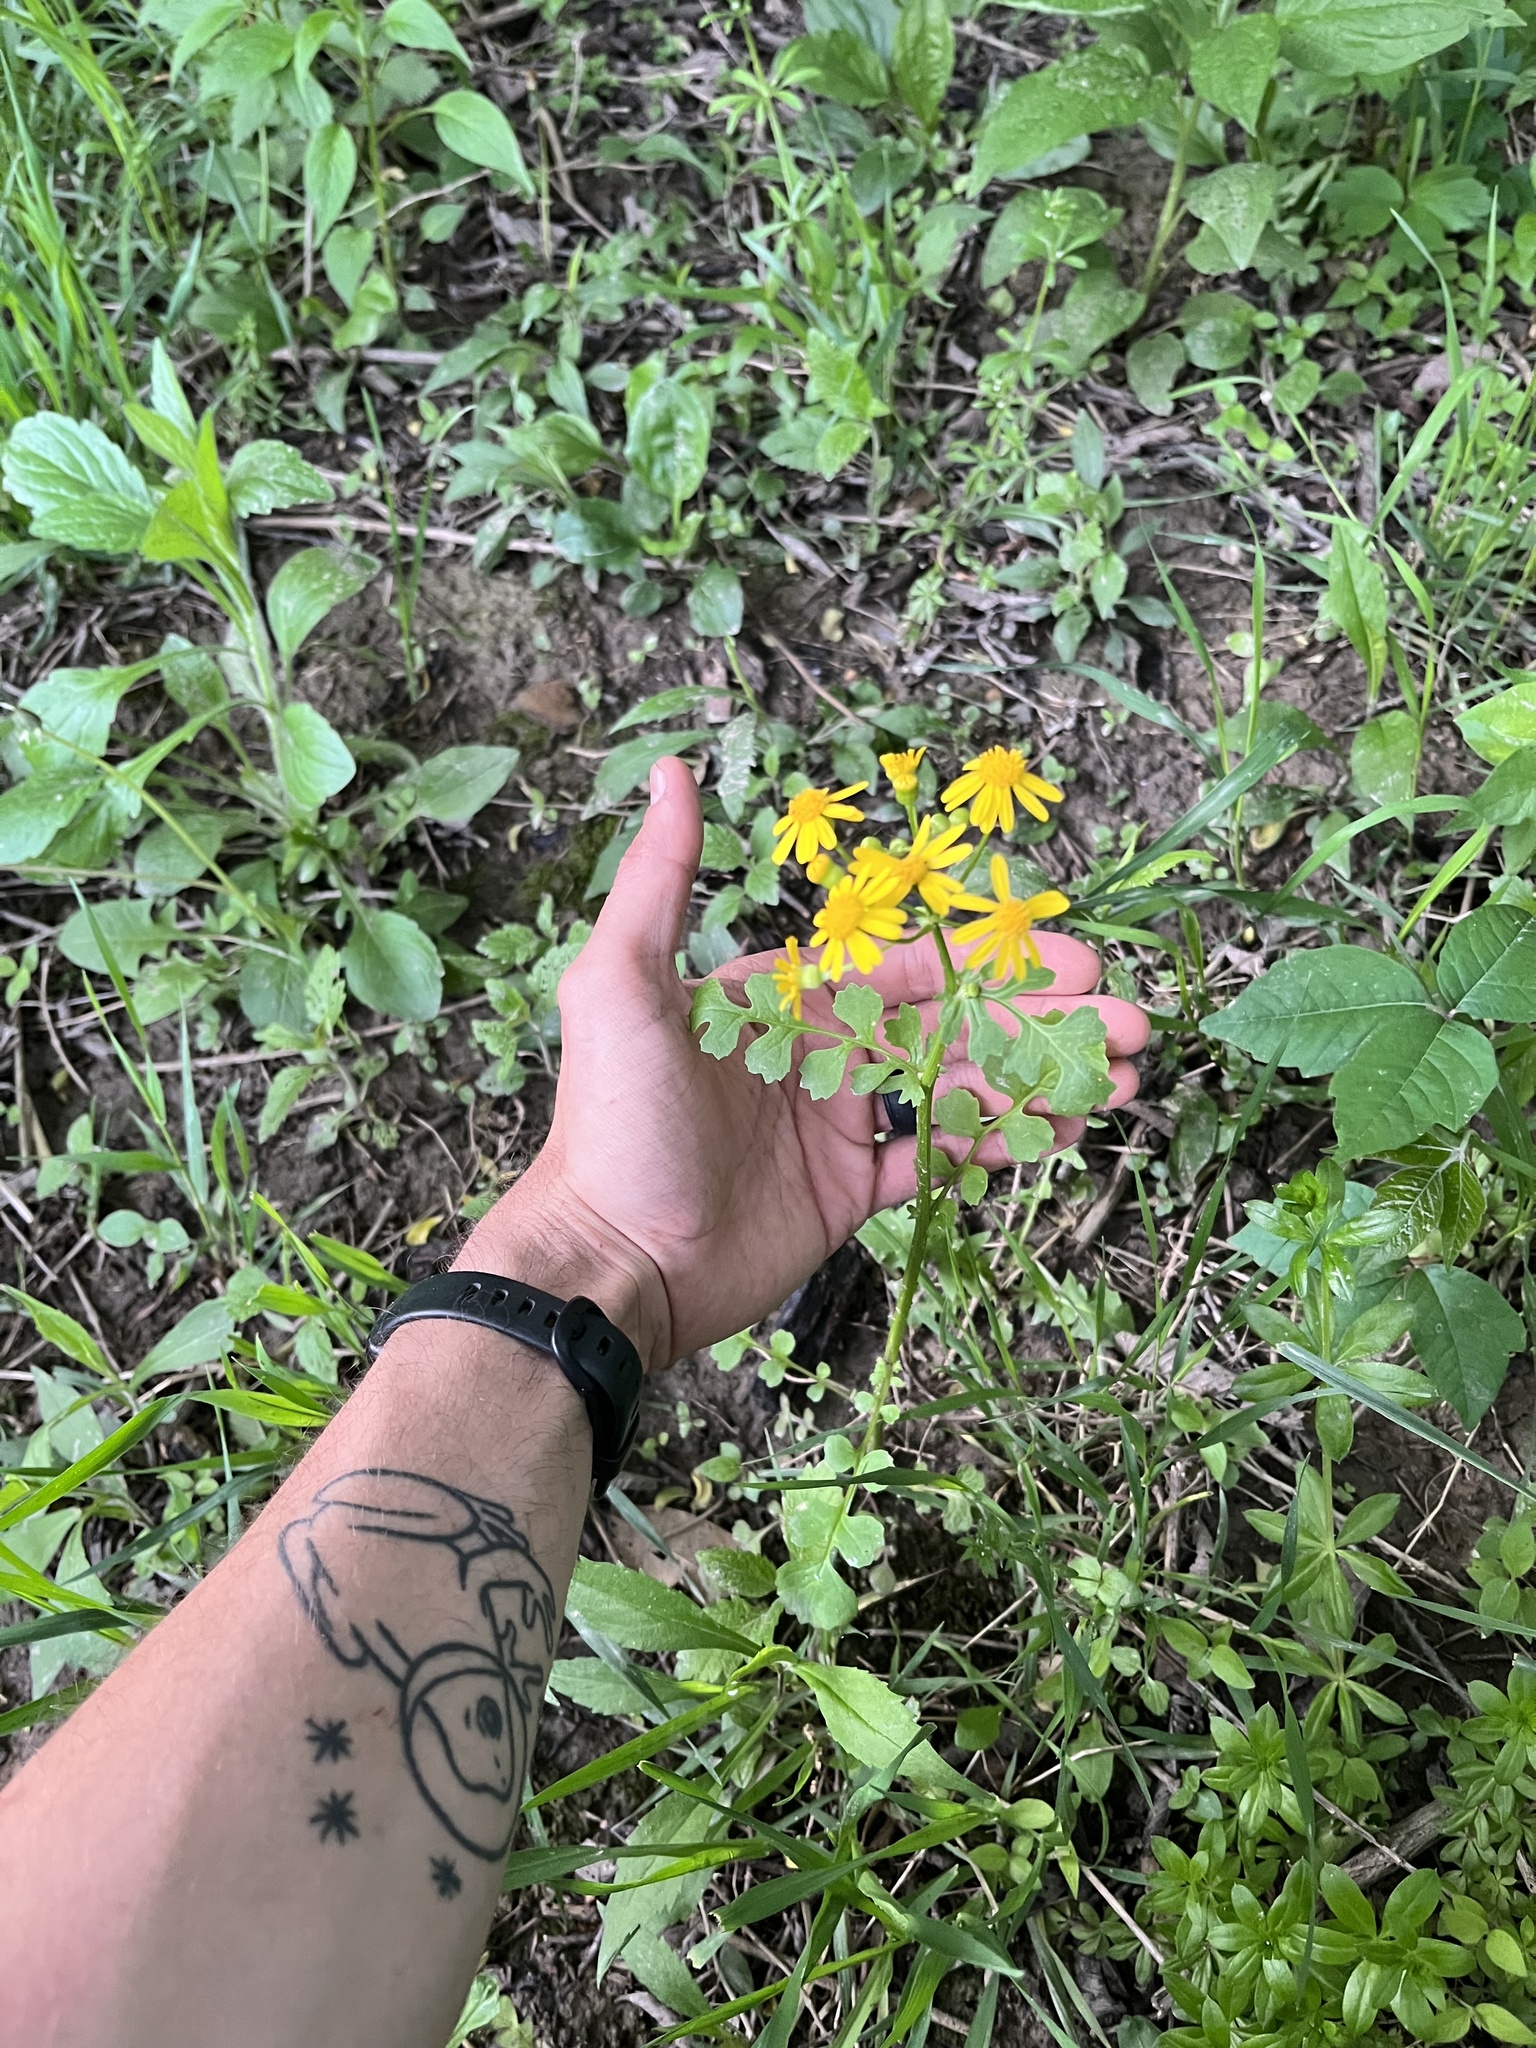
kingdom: Plantae
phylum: Tracheophyta
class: Magnoliopsida
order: Asterales
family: Asteraceae
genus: Packera
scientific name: Packera glabella
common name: Butterweed
